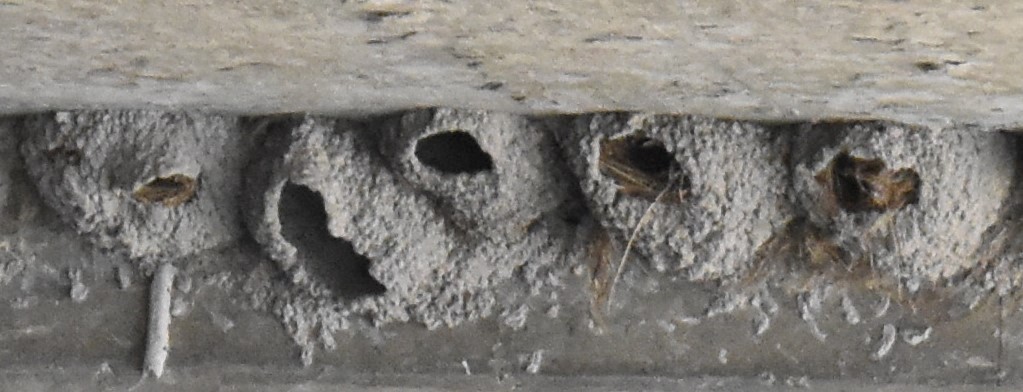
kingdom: Animalia
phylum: Chordata
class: Aves
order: Passeriformes
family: Hirundinidae
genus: Petrochelidon
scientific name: Petrochelidon pyrrhonota
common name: American cliff swallow
